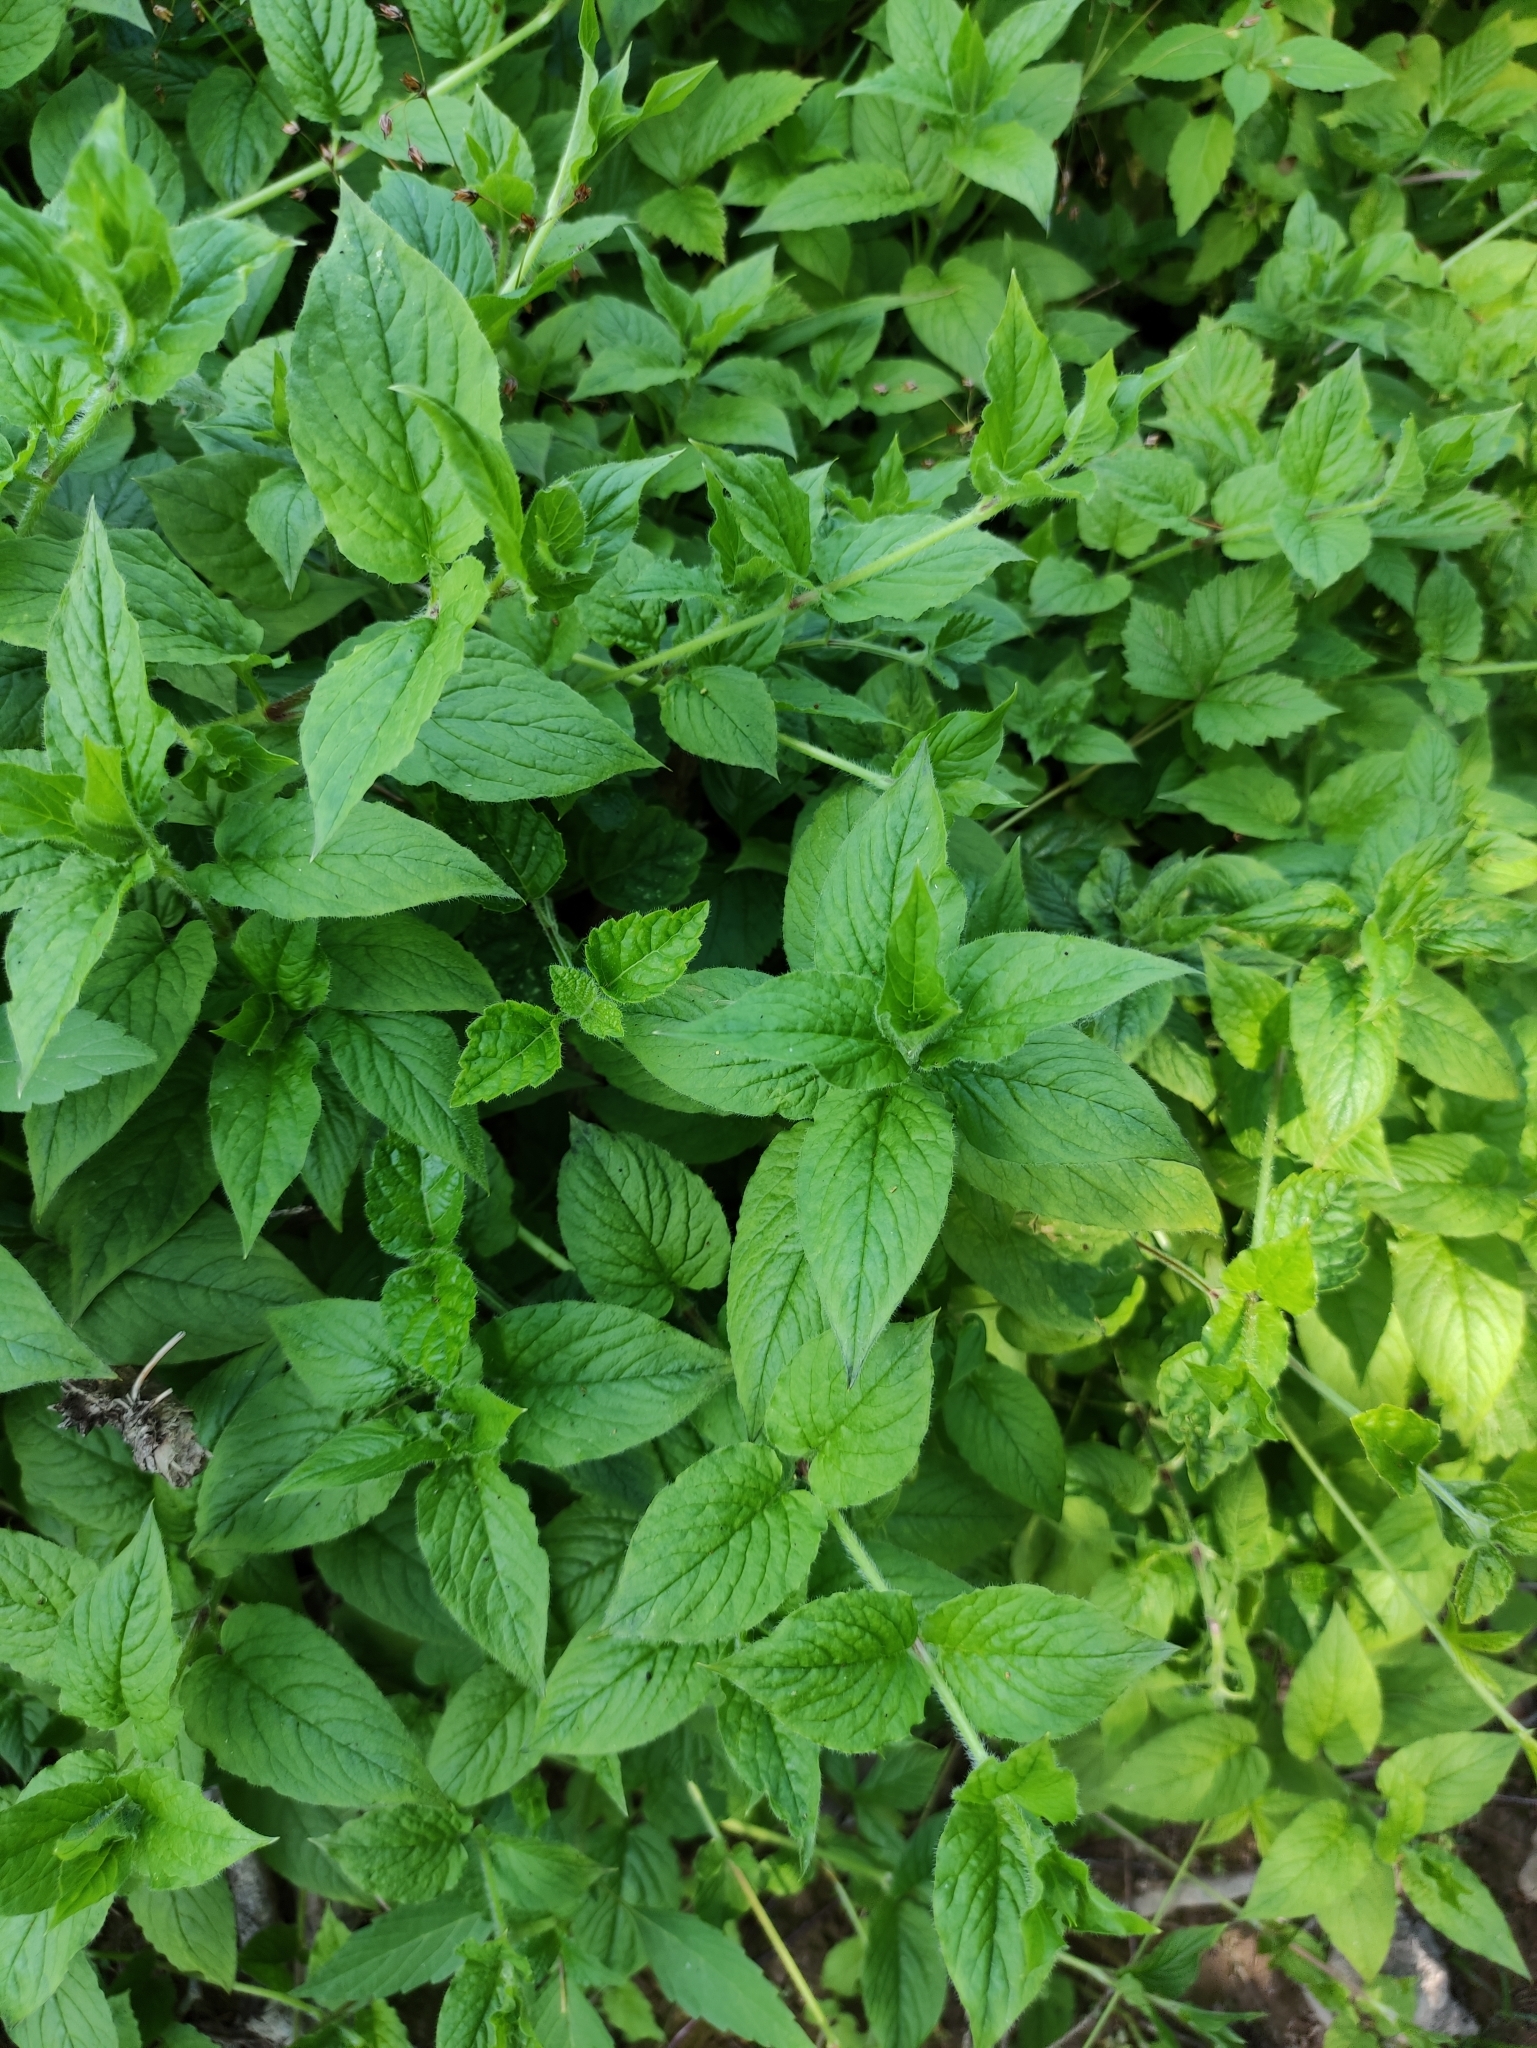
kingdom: Plantae
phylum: Tracheophyta
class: Magnoliopsida
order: Caryophyllales
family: Caryophyllaceae
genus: Stellaria
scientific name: Stellaria nemorum
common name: Wood stitchwort
